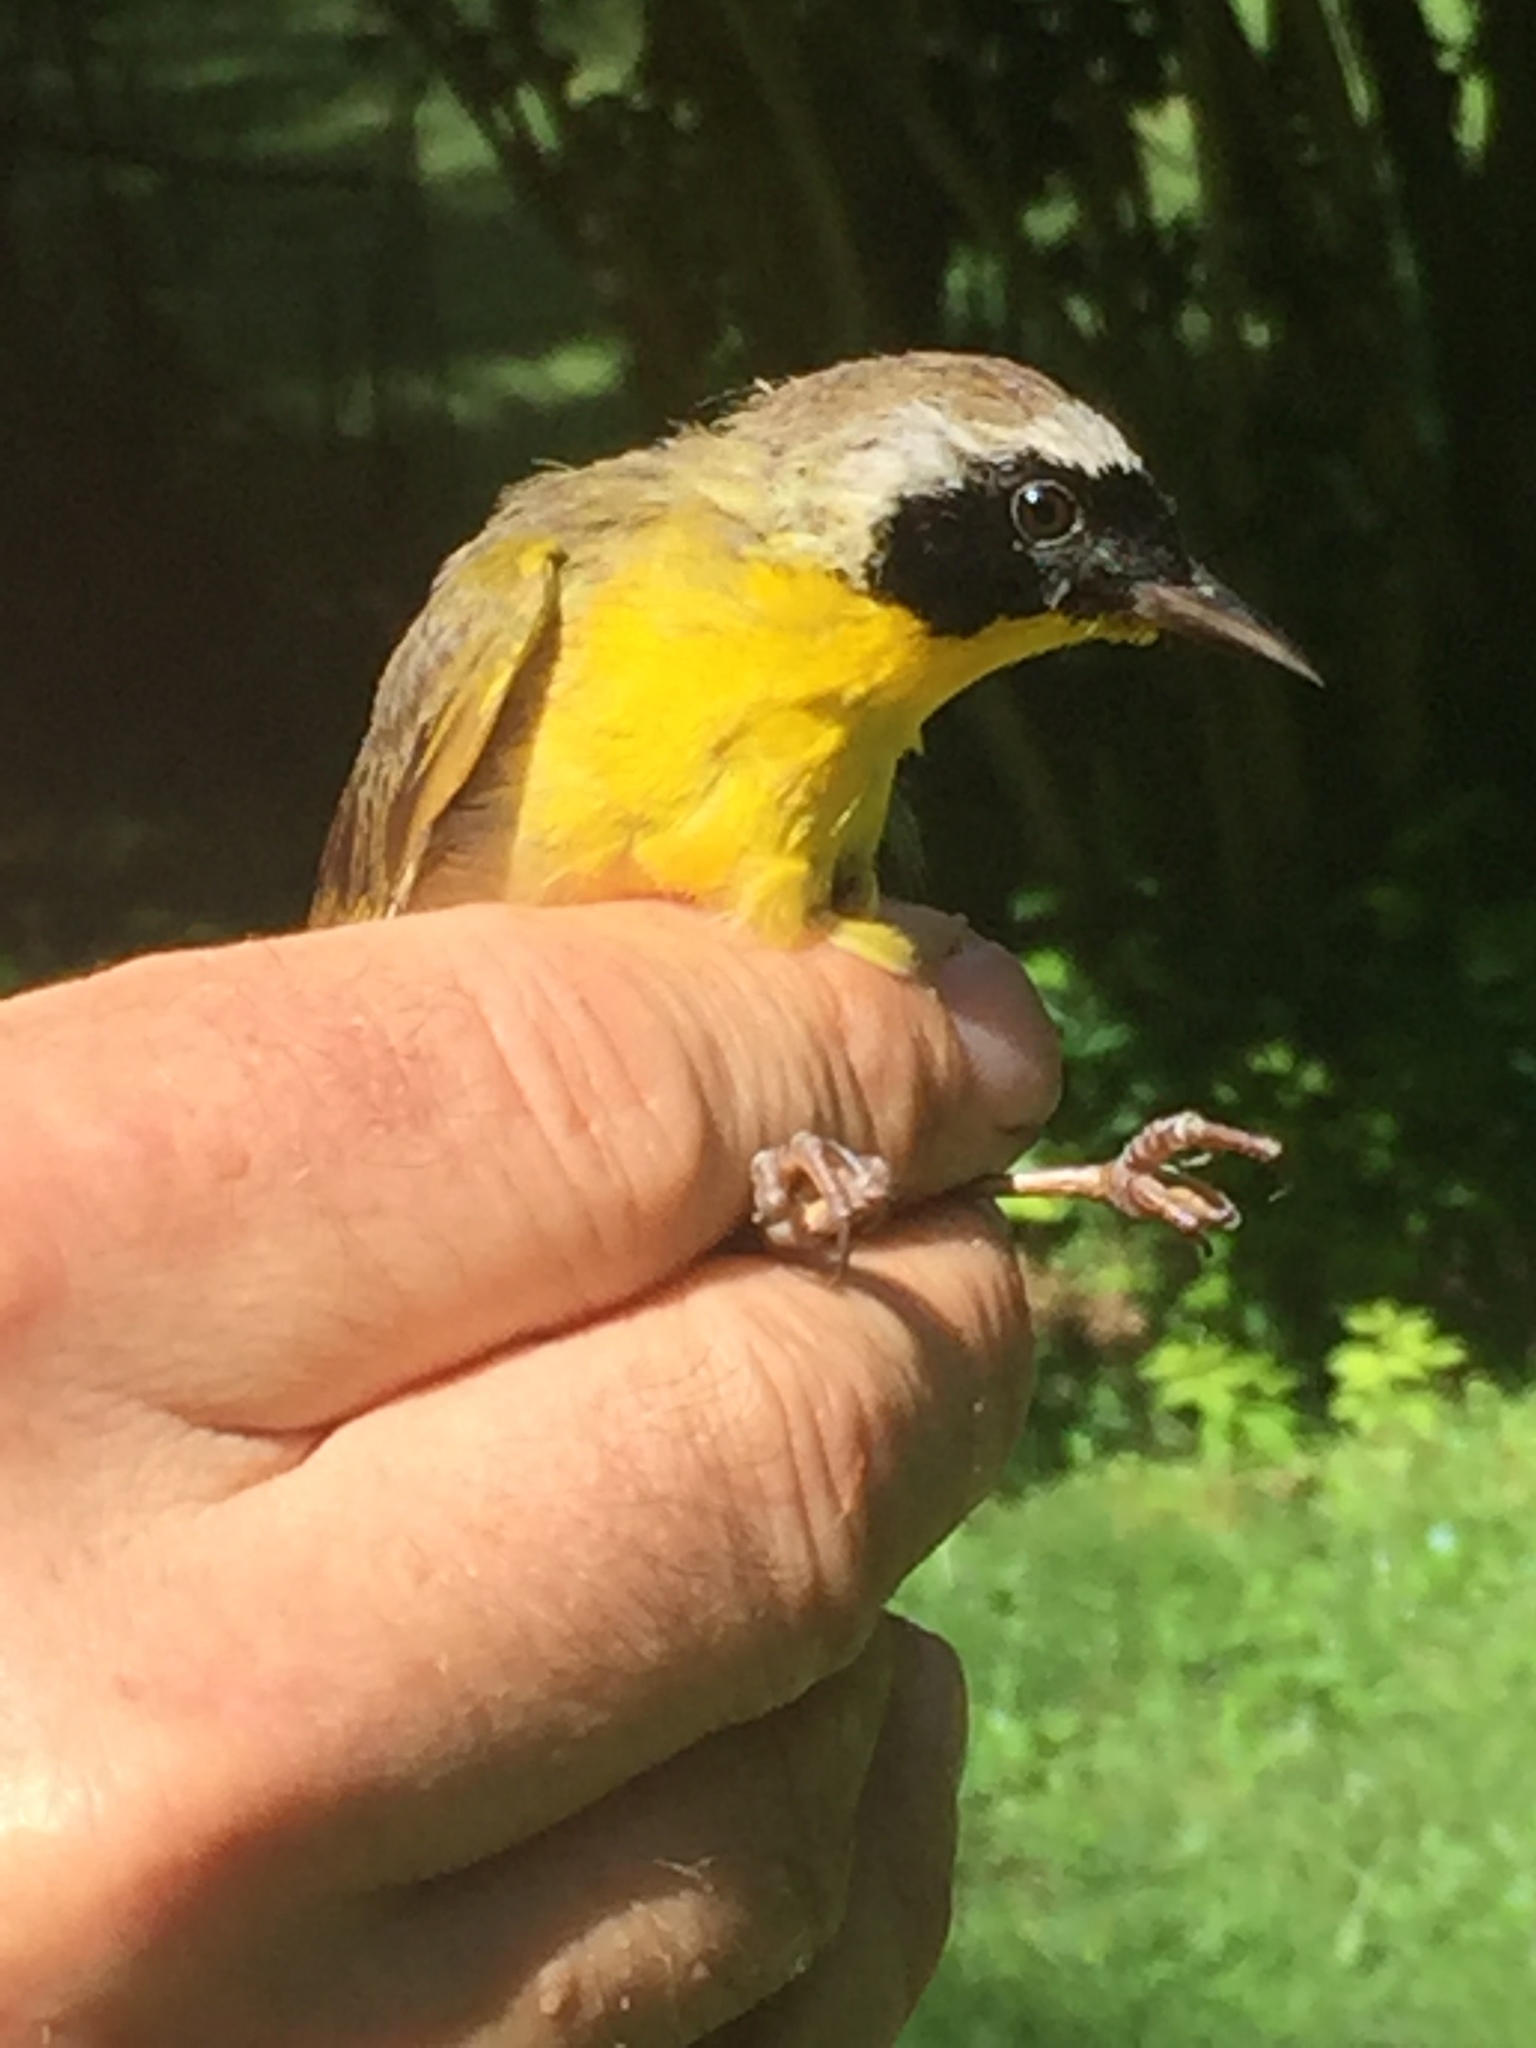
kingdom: Animalia
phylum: Chordata
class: Aves
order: Passeriformes
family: Parulidae
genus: Geothlypis
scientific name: Geothlypis trichas
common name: Common yellowthroat
